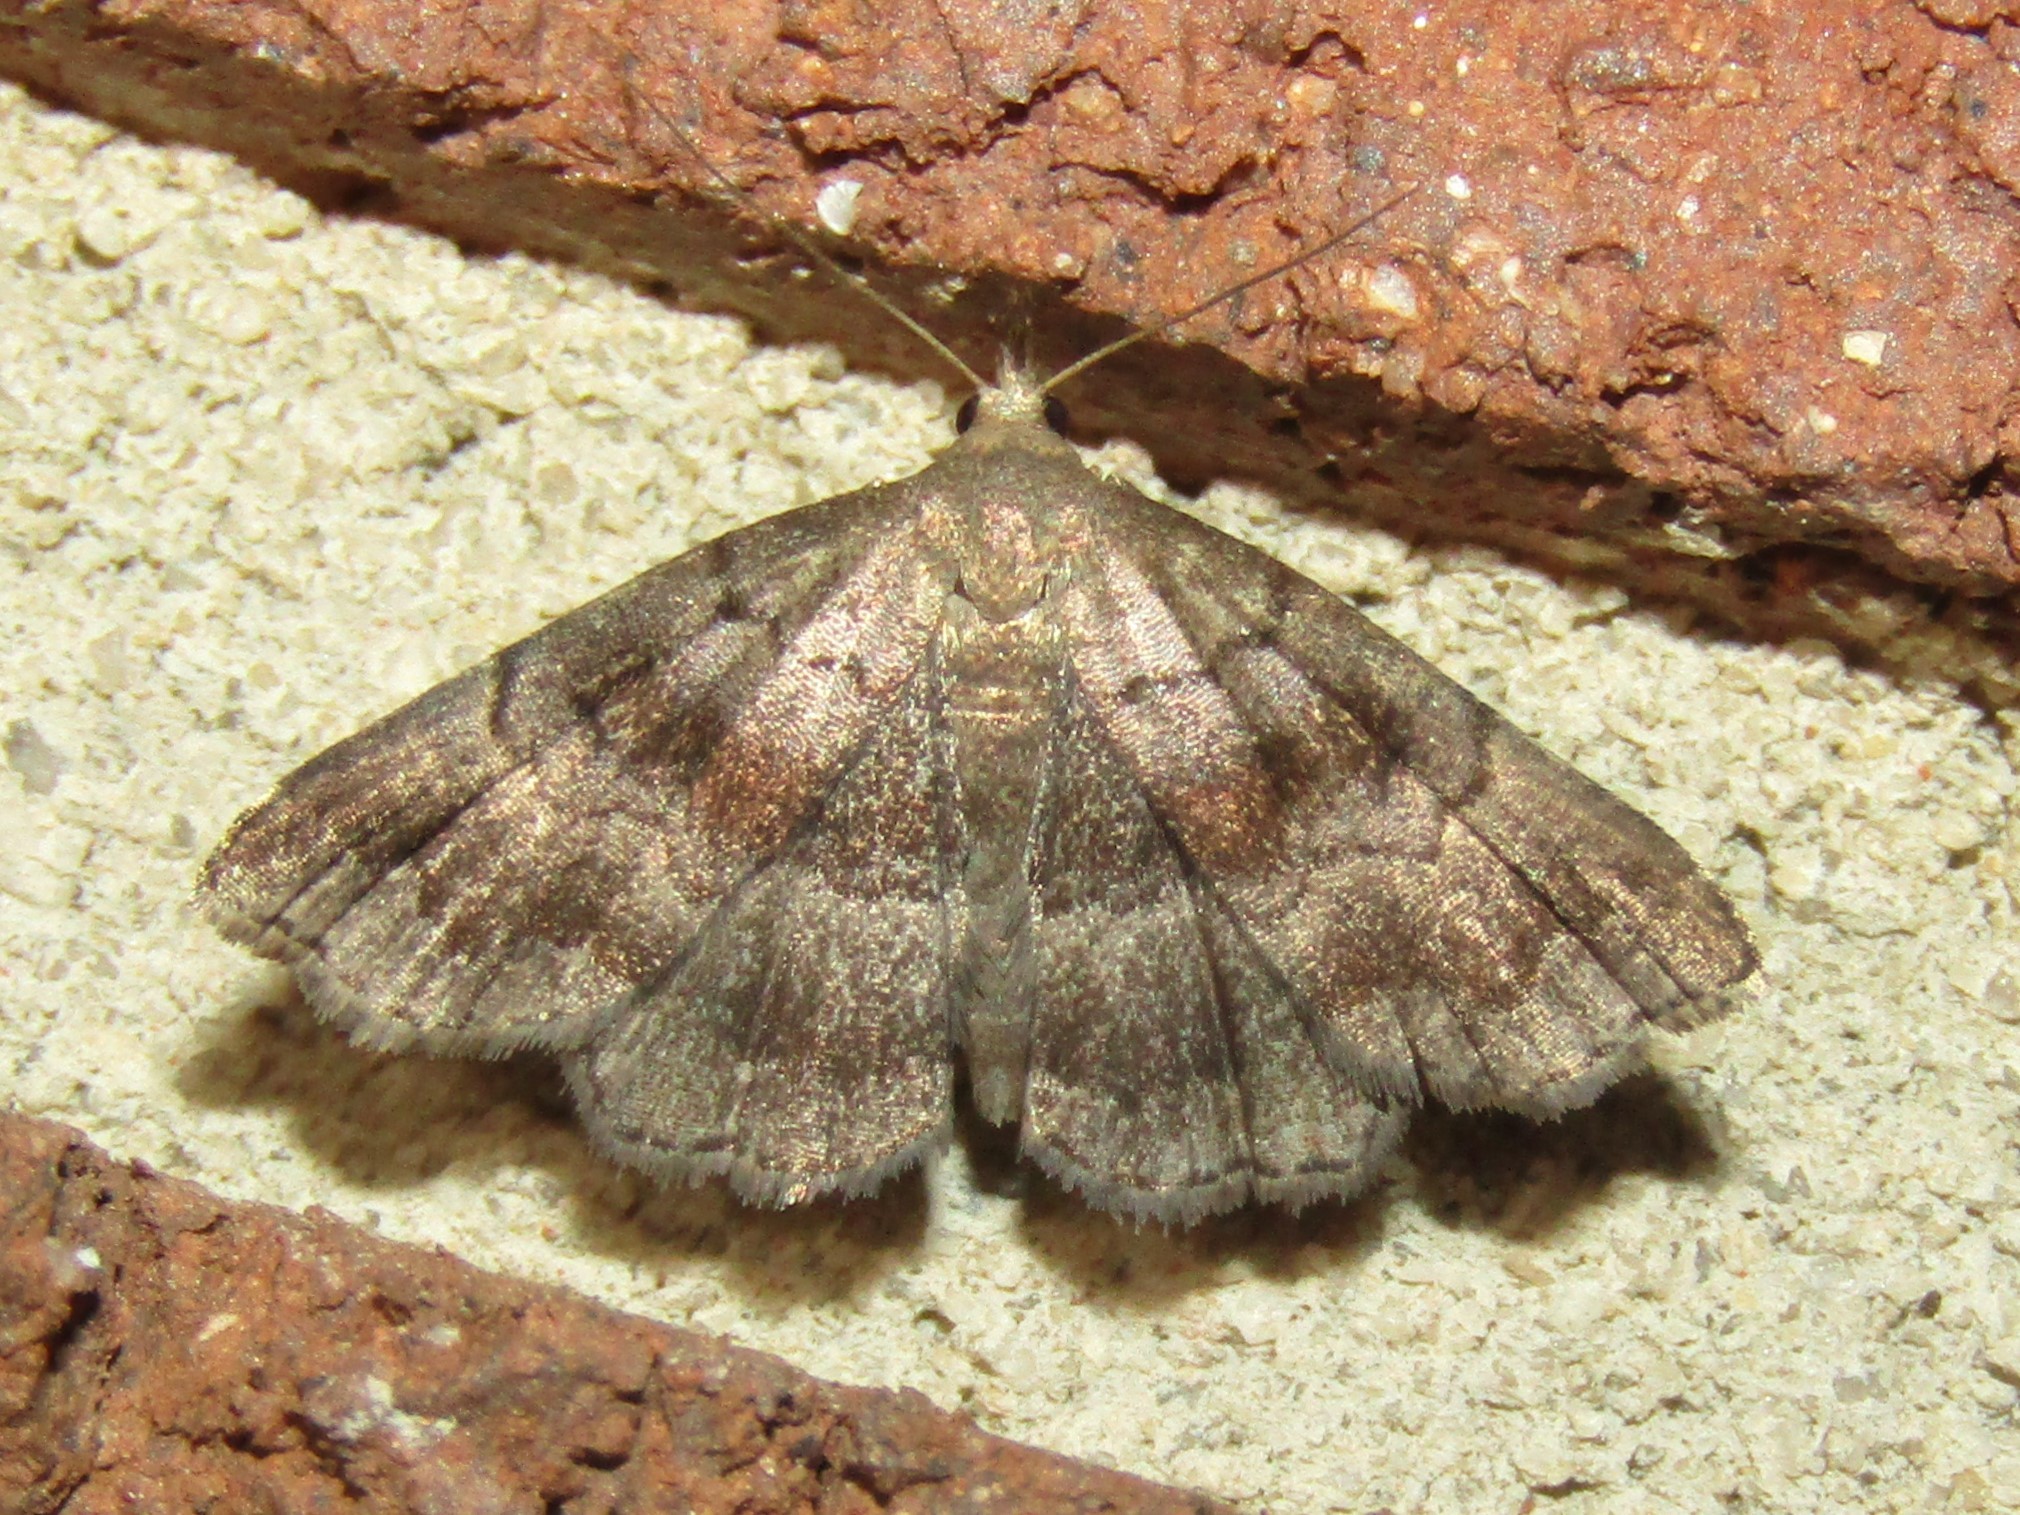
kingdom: Animalia
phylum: Arthropoda
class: Insecta
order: Lepidoptera
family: Erebidae
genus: Phalaenostola
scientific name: Phalaenostola larentioides
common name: Black-banded owlet
